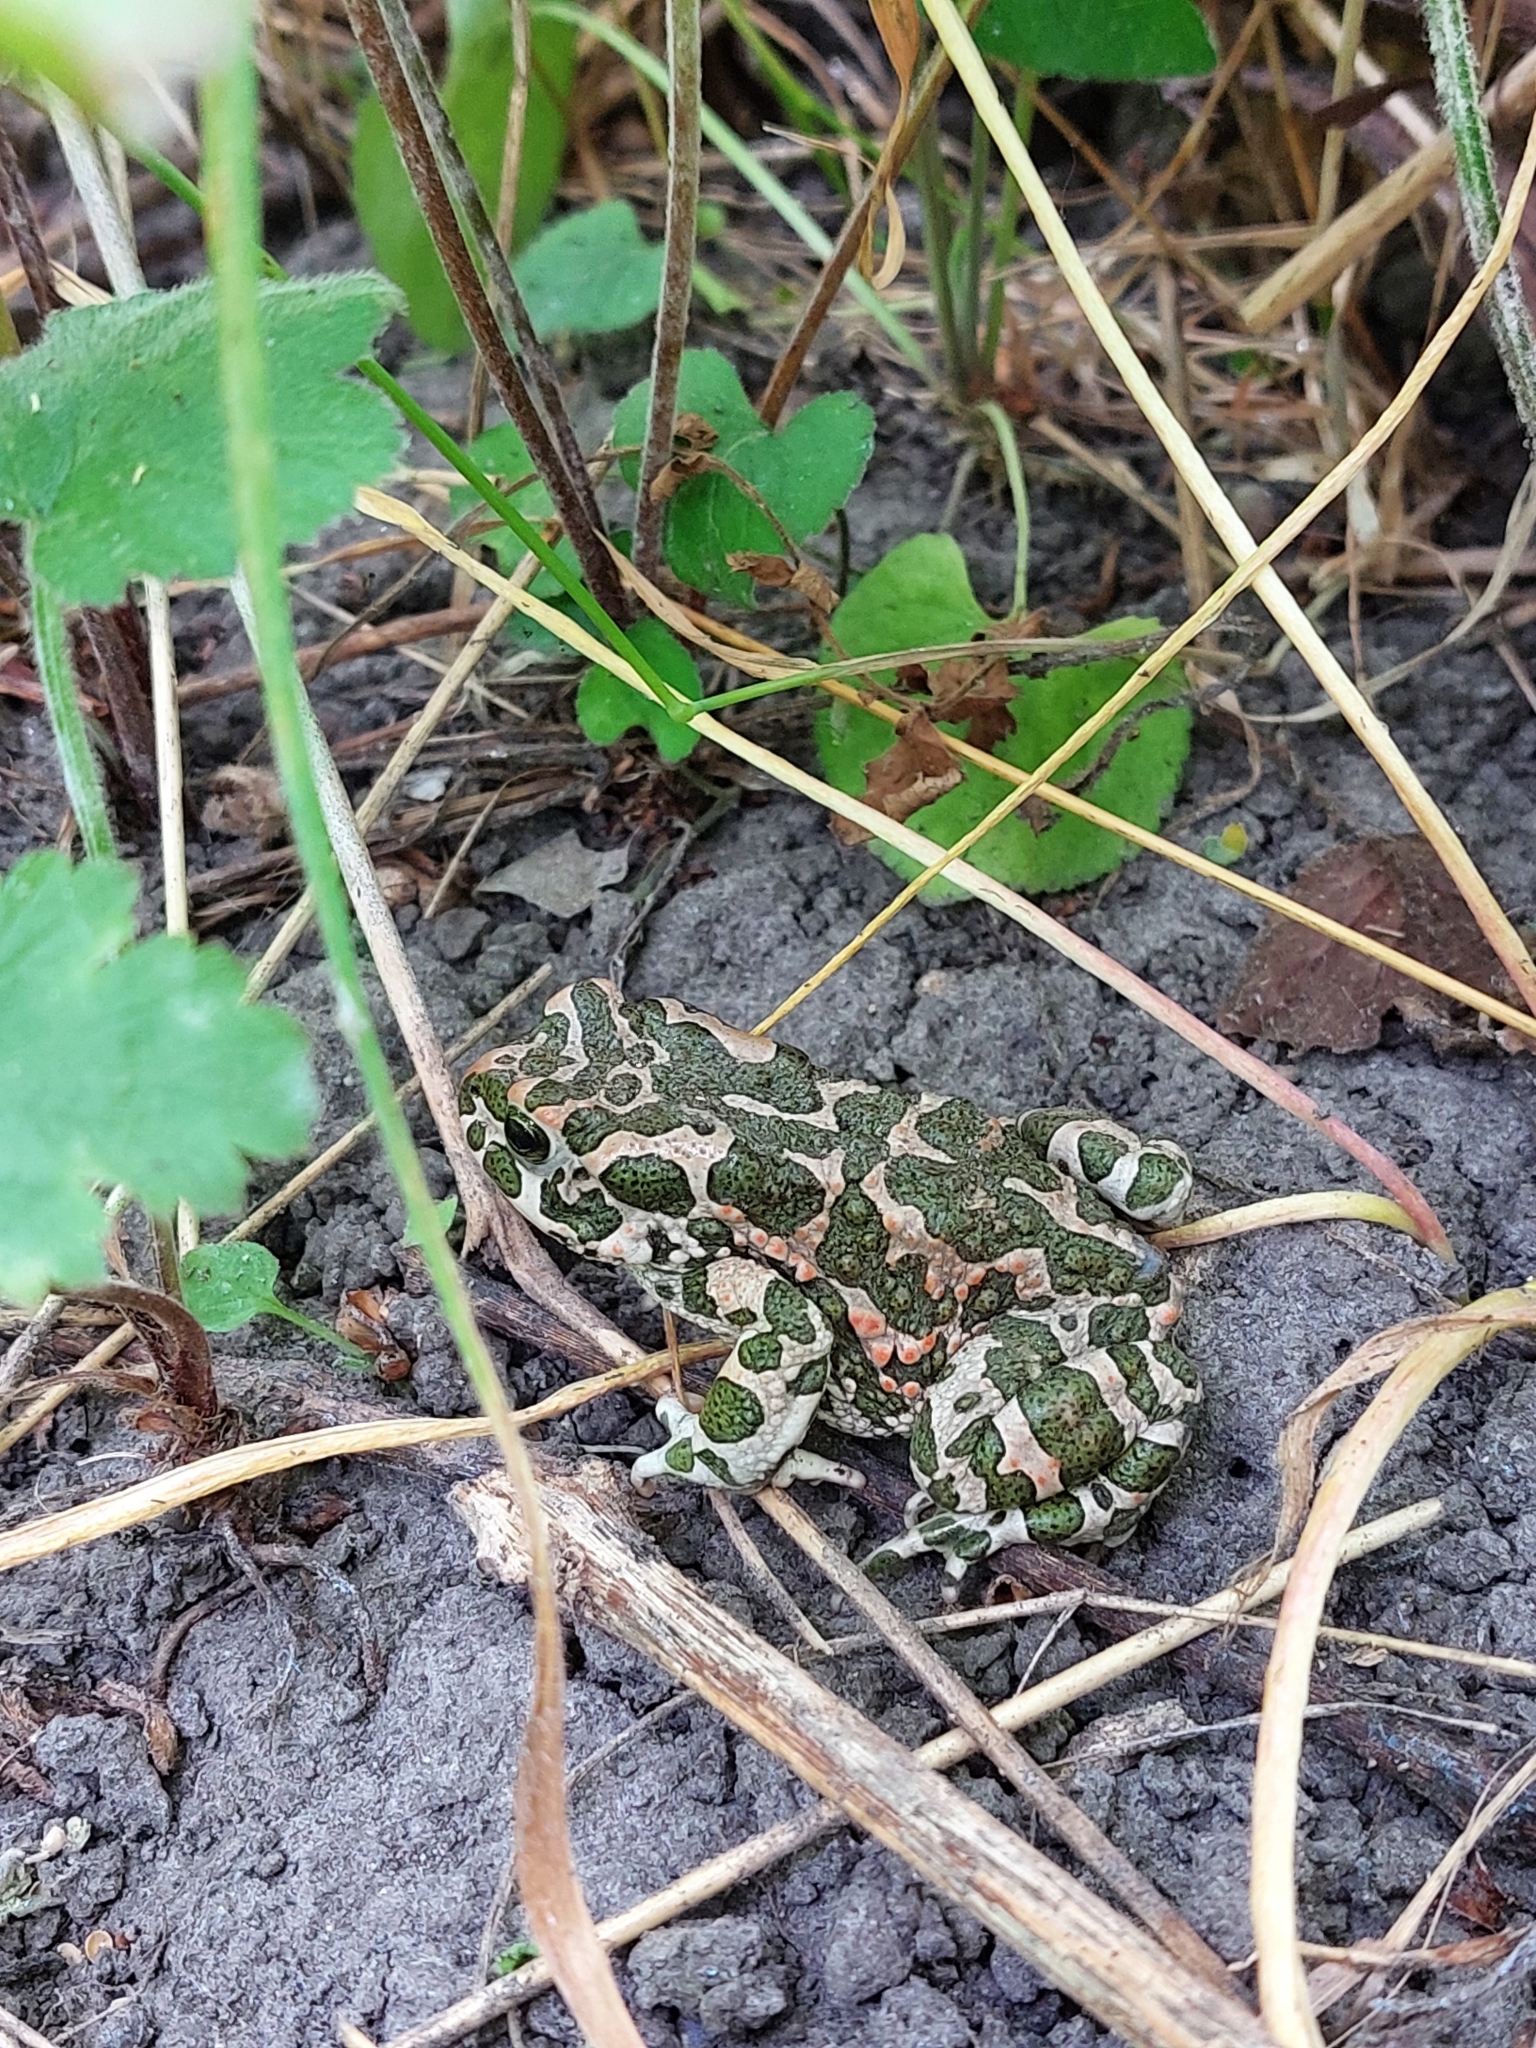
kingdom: Animalia
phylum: Chordata
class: Amphibia
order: Anura
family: Bufonidae
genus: Bufotes
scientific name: Bufotes viridis
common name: European green toad
